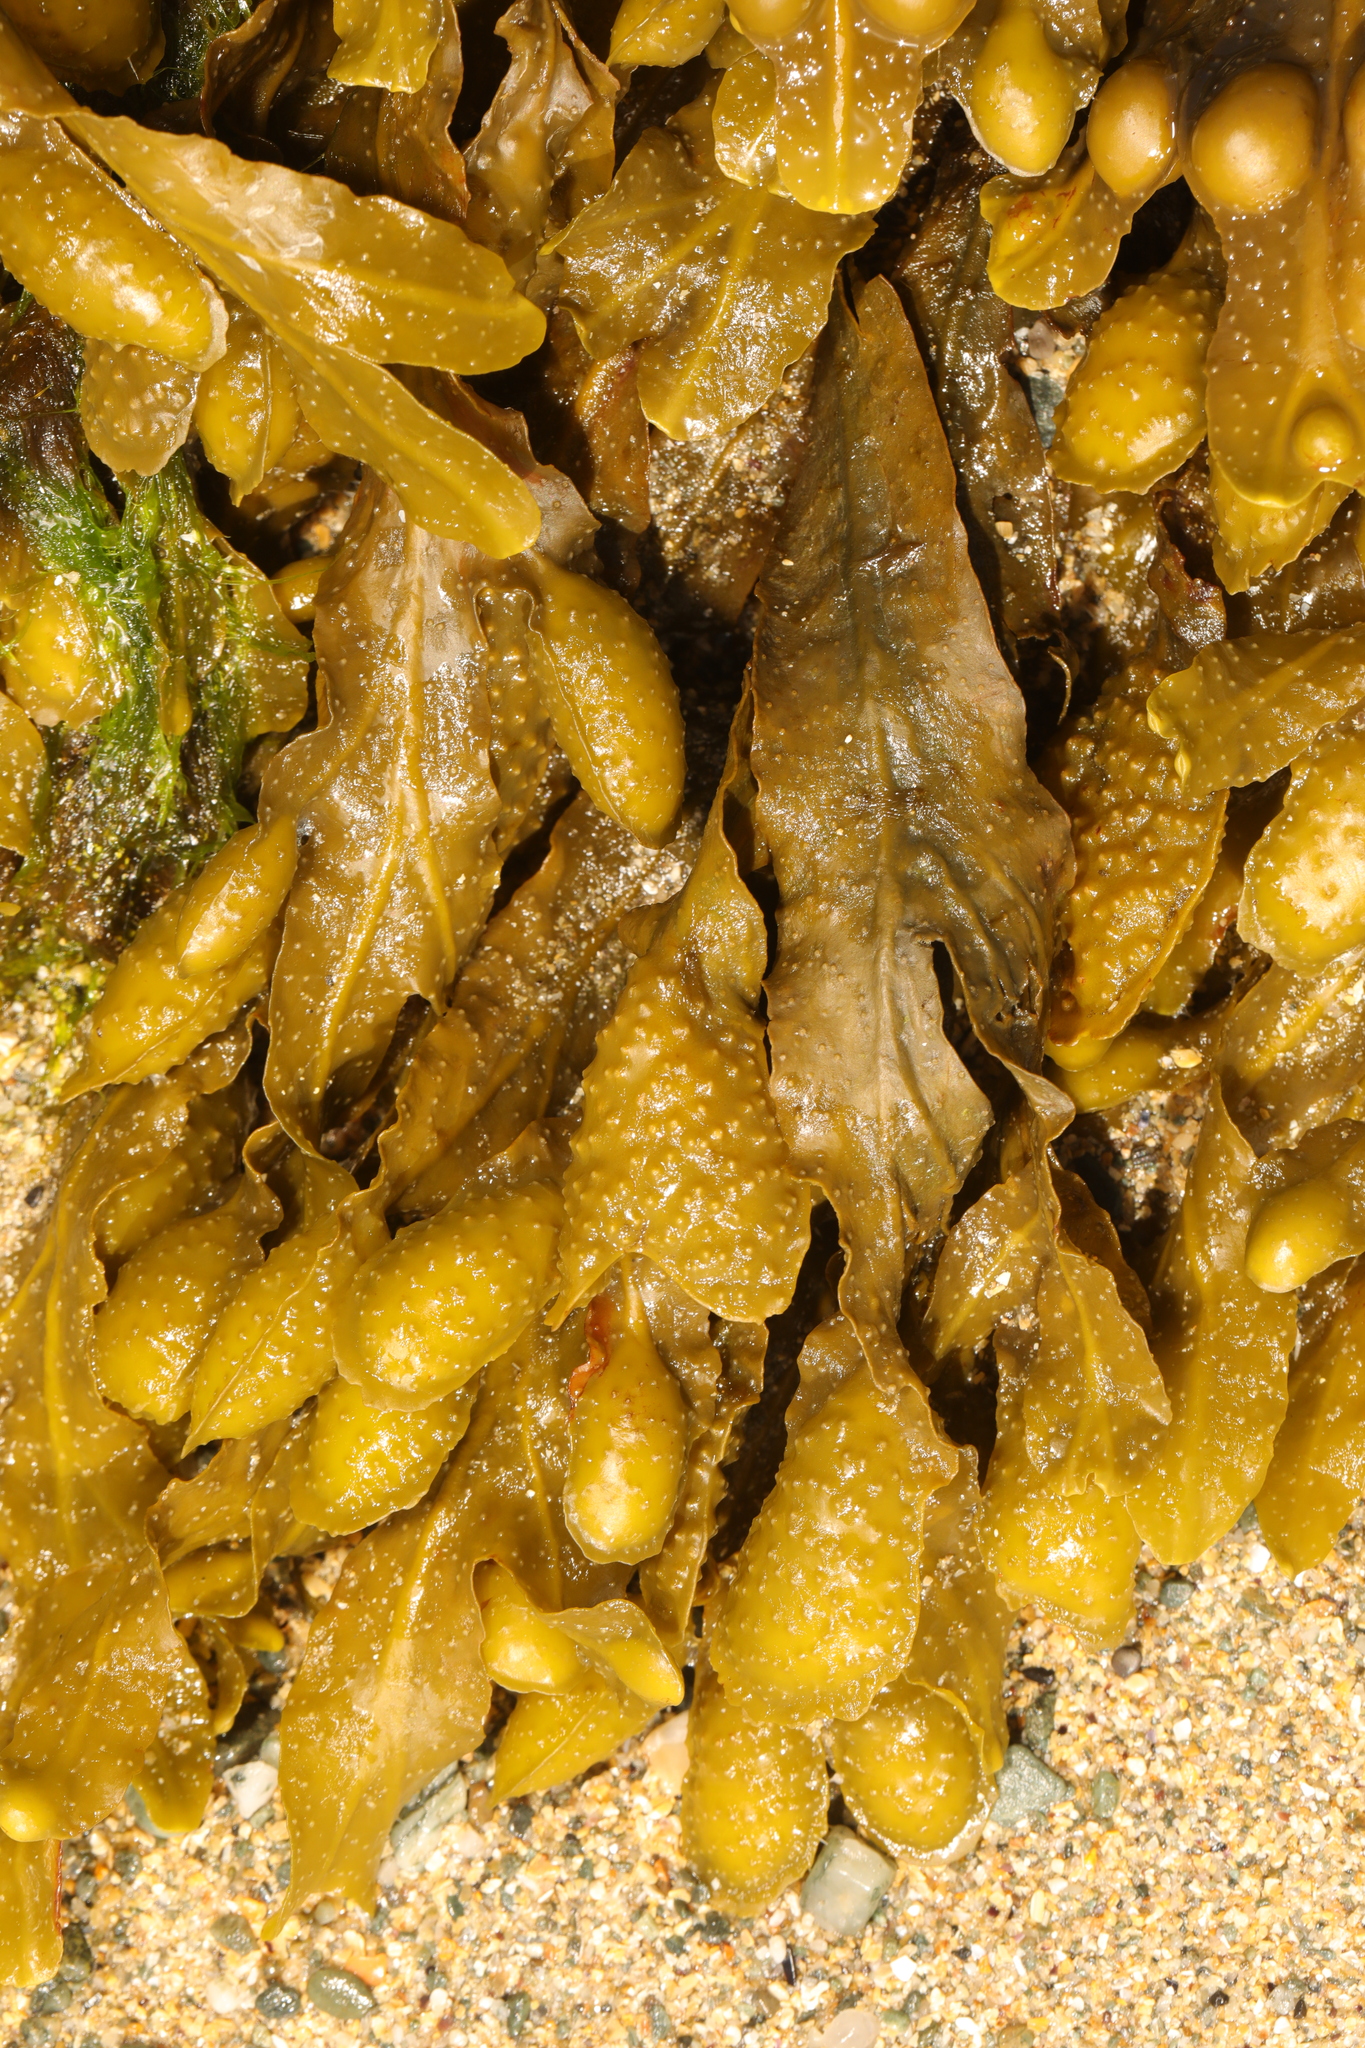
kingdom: Chromista
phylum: Ochrophyta
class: Phaeophyceae
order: Fucales
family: Fucaceae
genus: Fucus
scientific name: Fucus spiralis
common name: Spiral wrack
